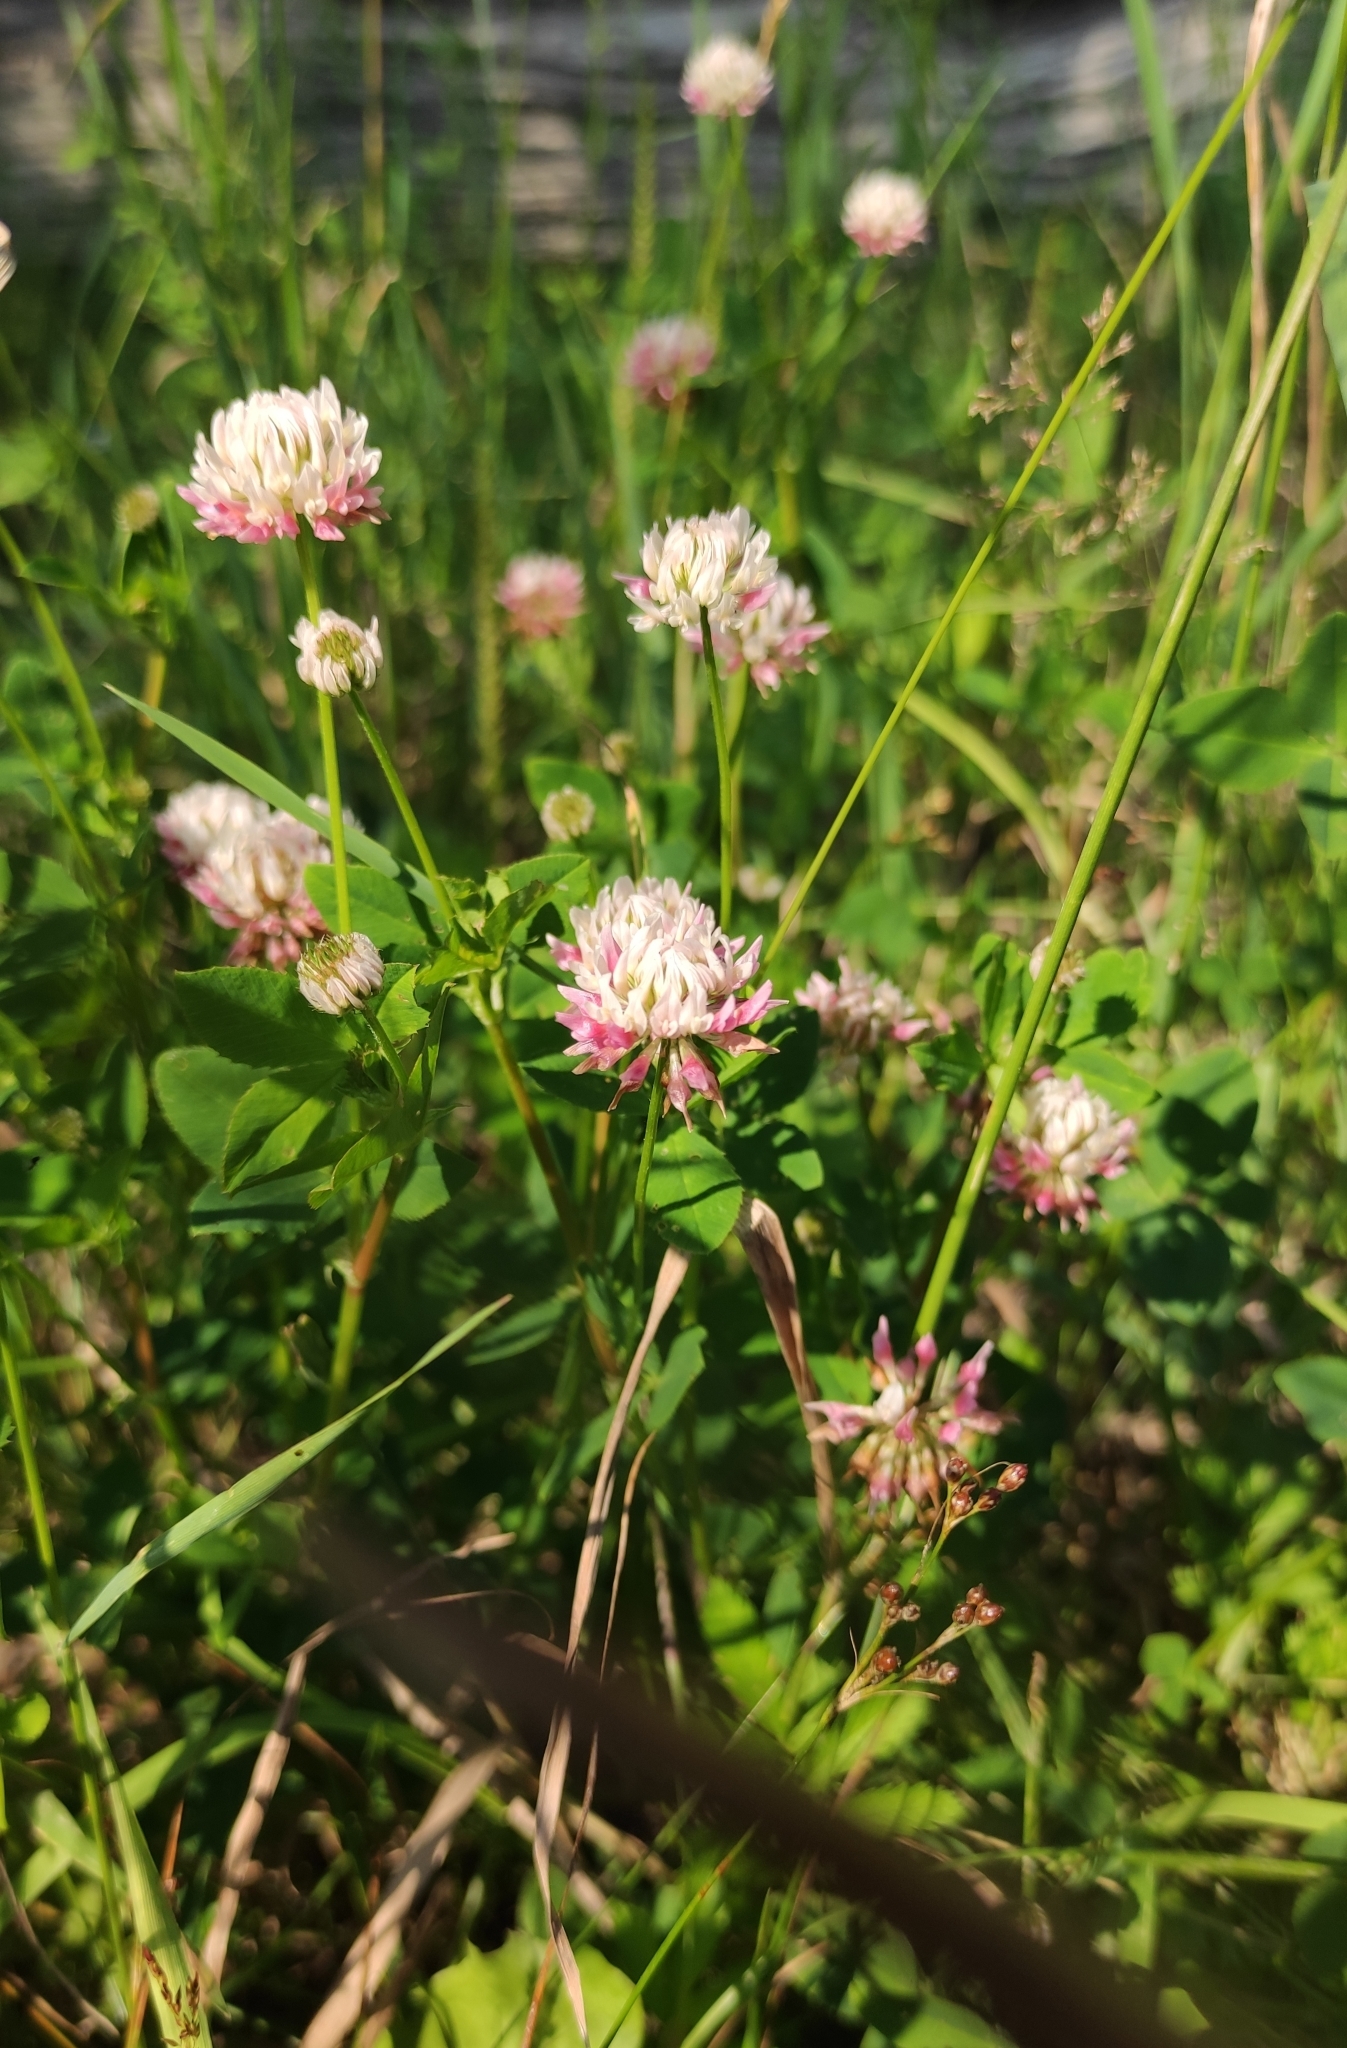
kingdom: Plantae
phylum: Tracheophyta
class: Magnoliopsida
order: Fabales
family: Fabaceae
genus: Trifolium
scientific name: Trifolium hybridum
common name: Alsike clover
